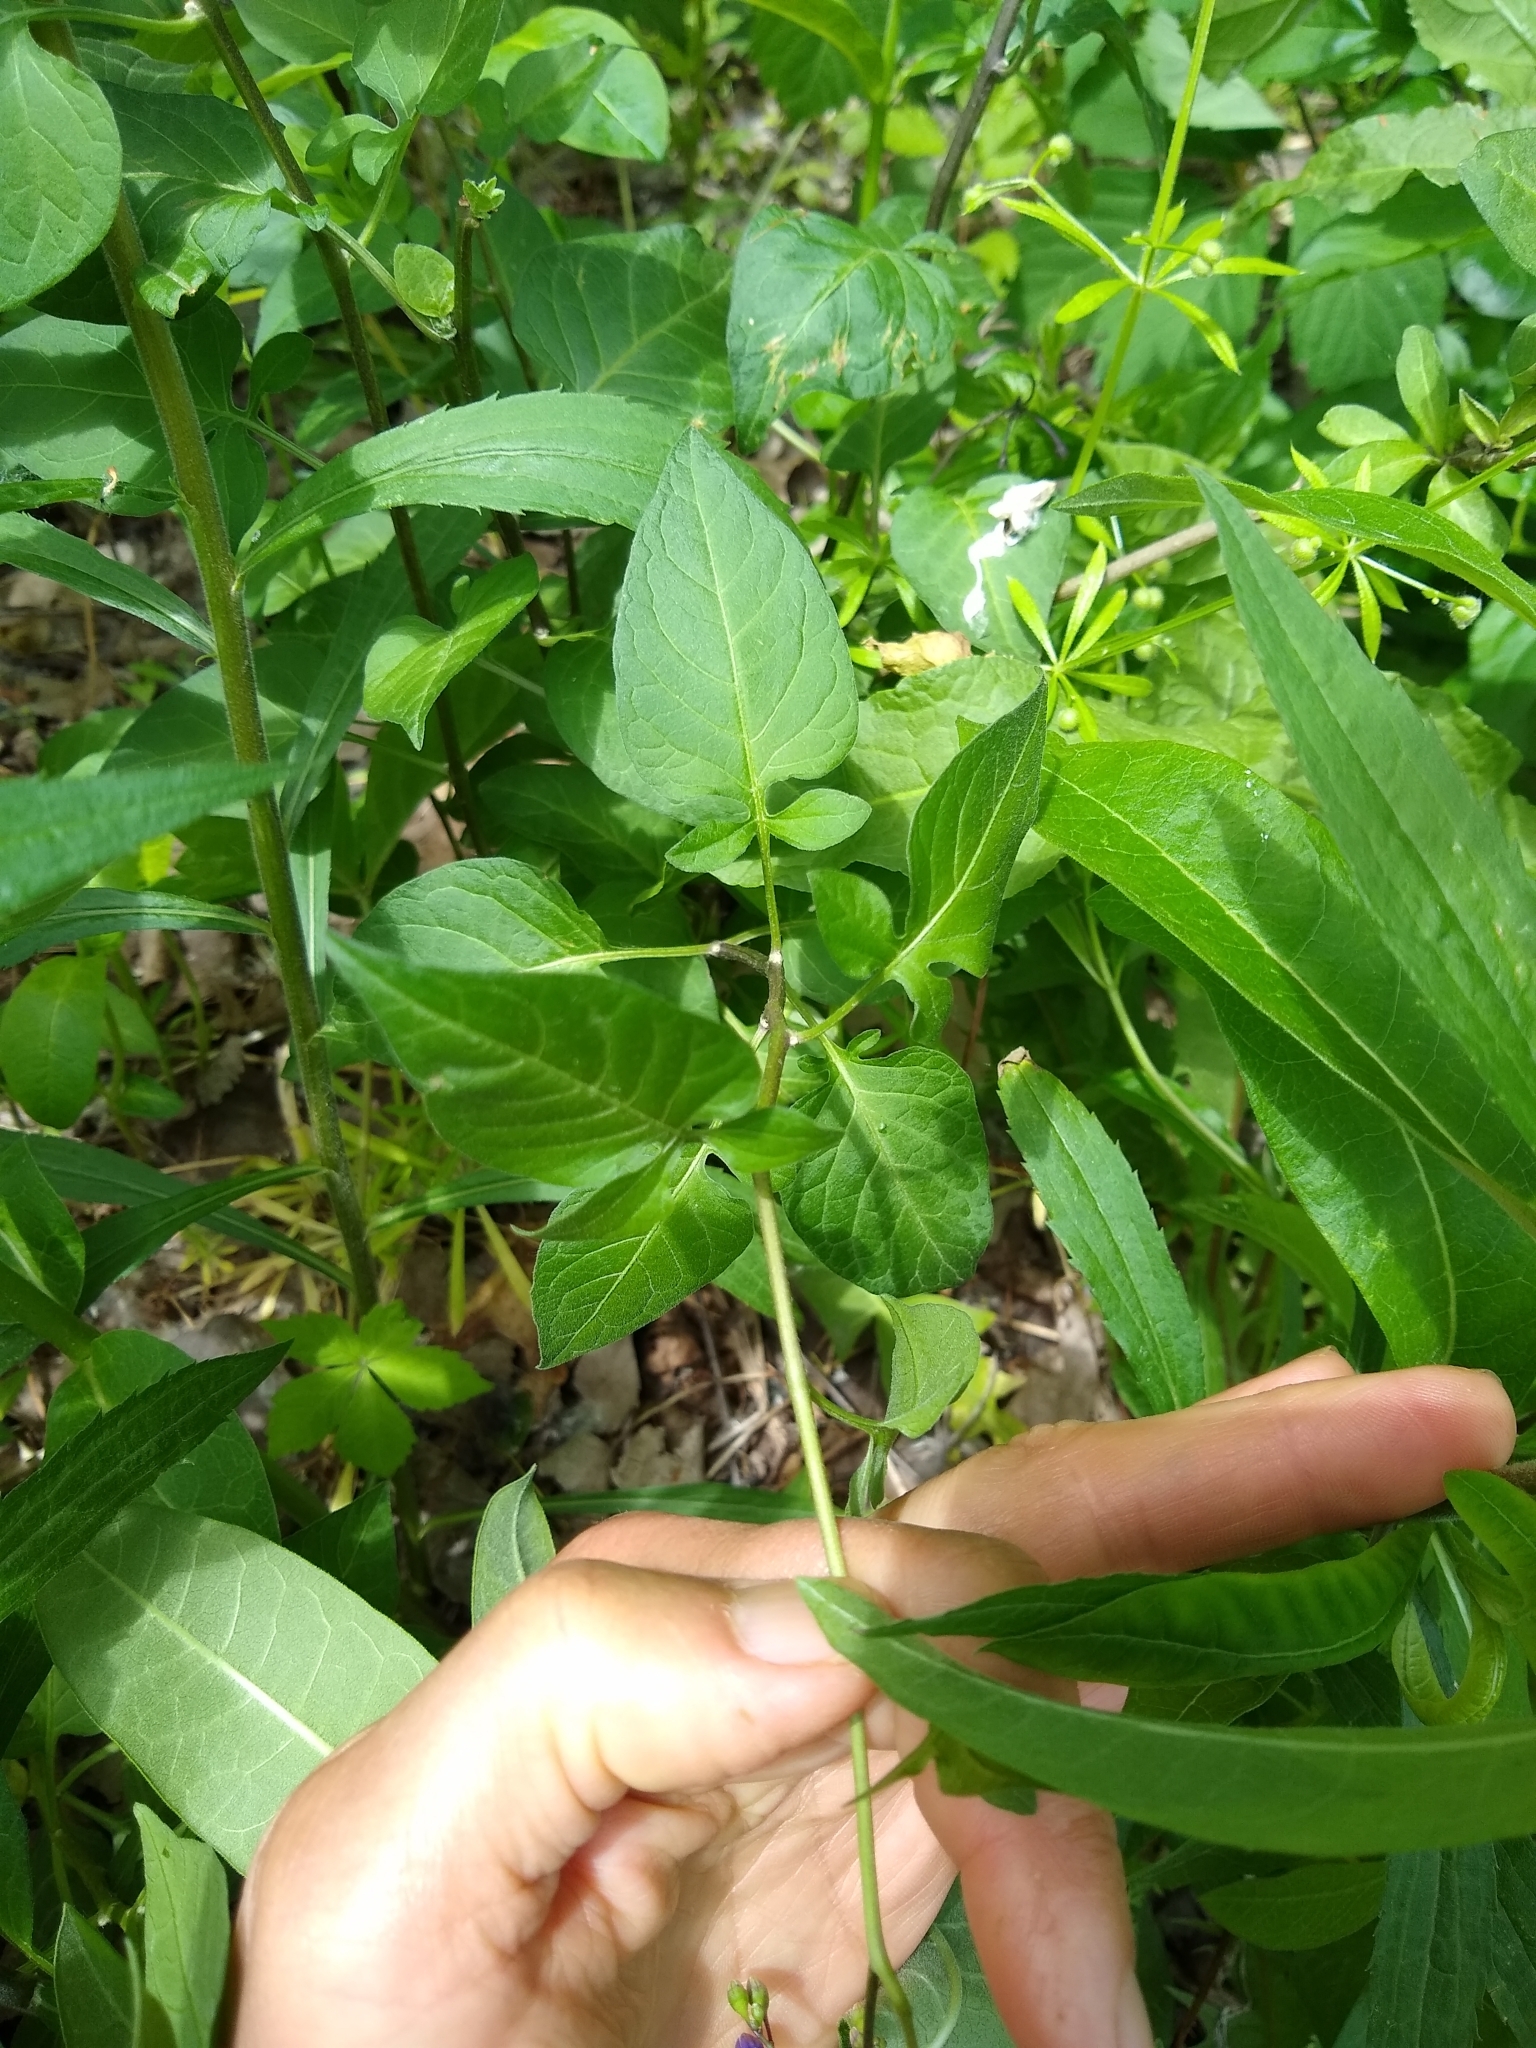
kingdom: Plantae
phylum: Tracheophyta
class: Magnoliopsida
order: Solanales
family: Solanaceae
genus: Solanum
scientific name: Solanum dulcamara
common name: Climbing nightshade
